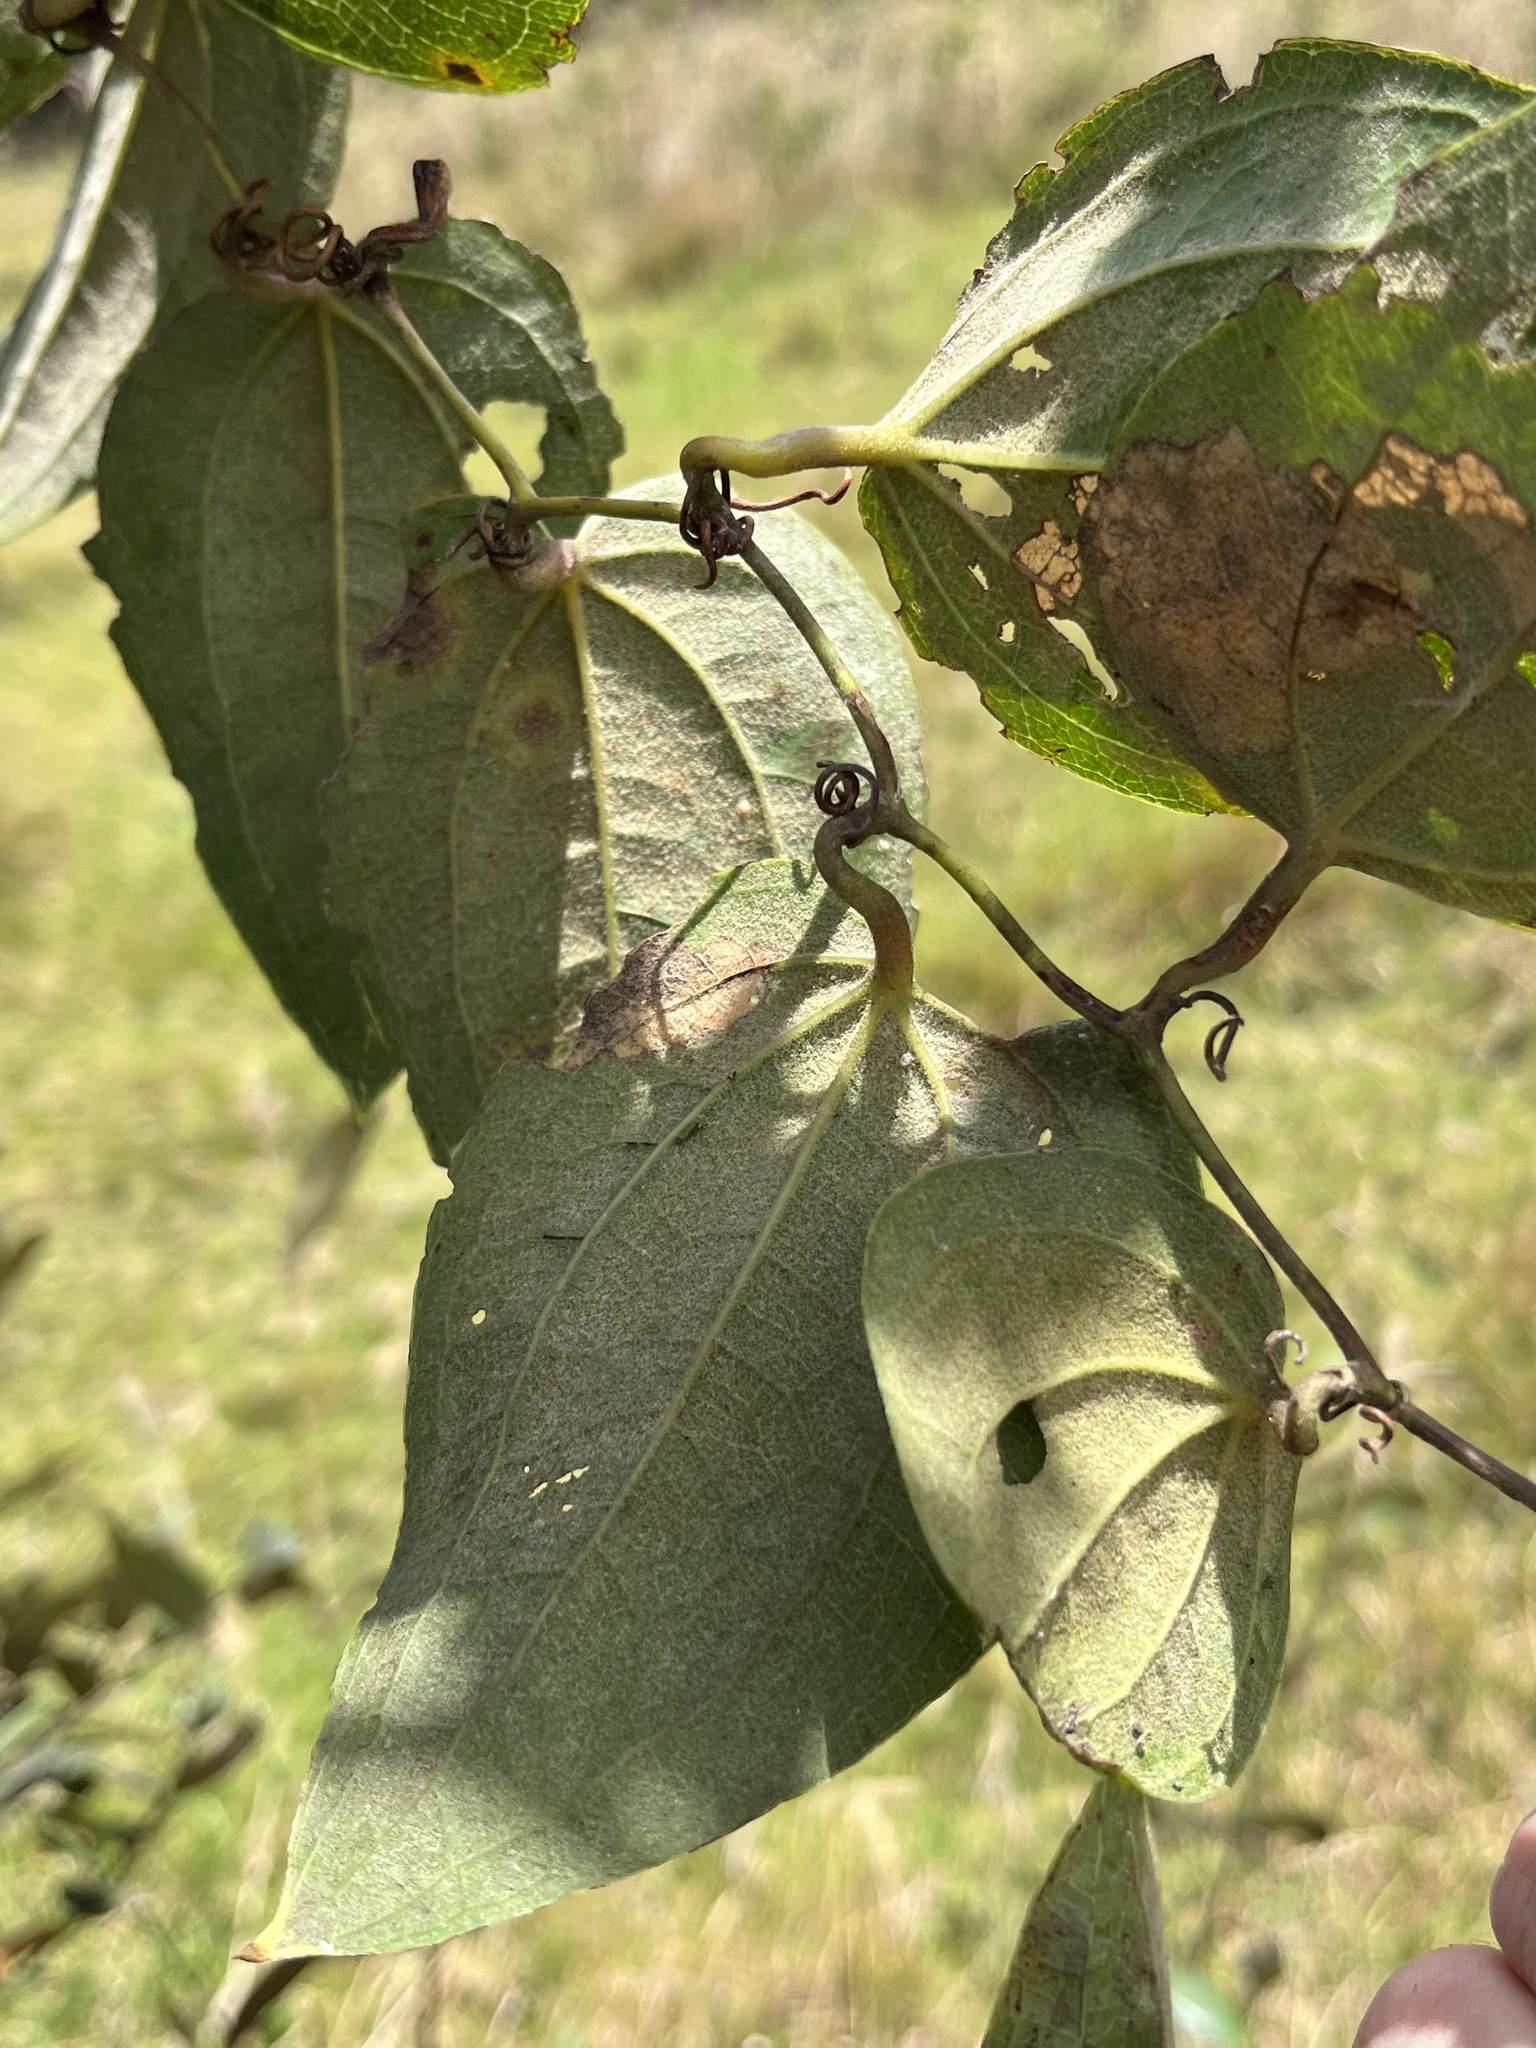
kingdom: Plantae
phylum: Tracheophyta
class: Liliopsida
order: Liliales
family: Smilacaceae
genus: Smilax
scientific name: Smilax tomentosa
